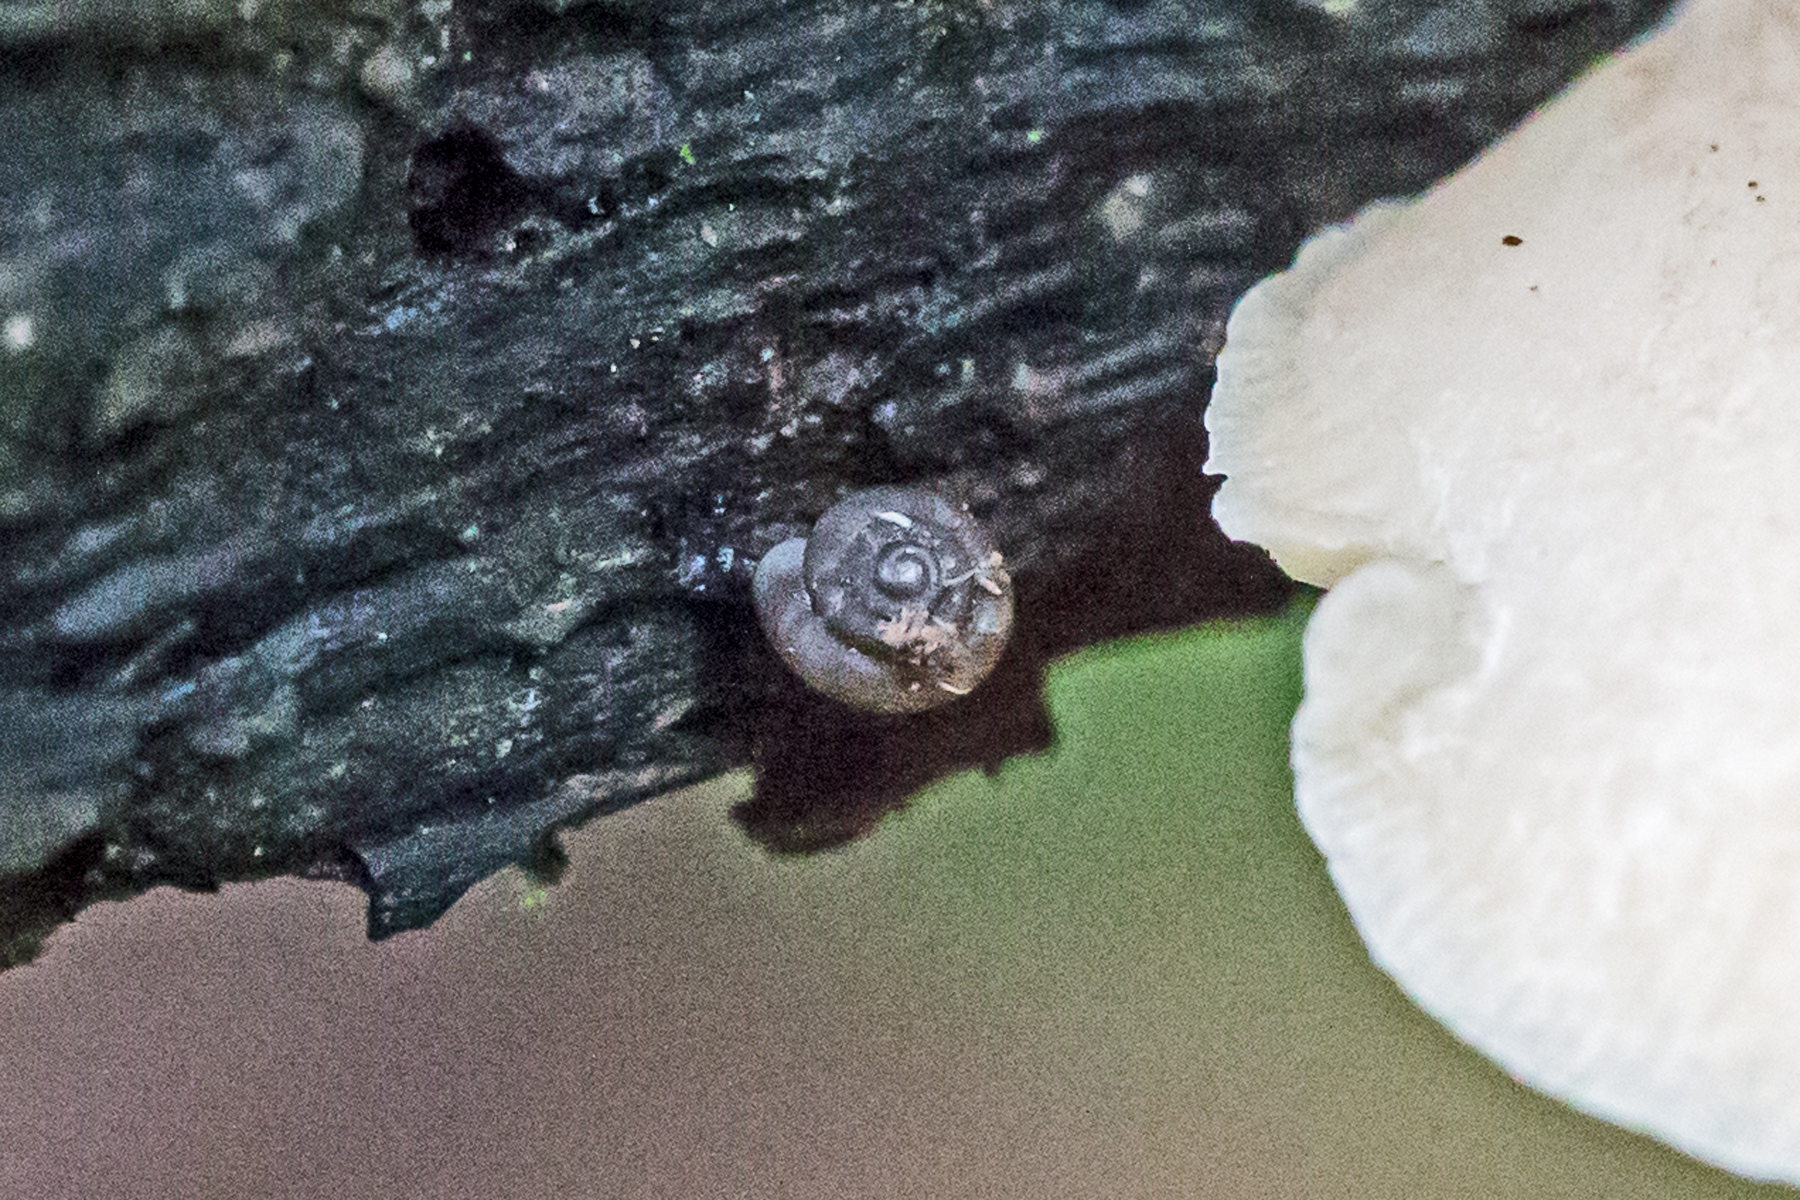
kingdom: Animalia
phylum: Mollusca
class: Gastropoda
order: Stylommatophora
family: Discidae
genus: Discus
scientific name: Discus rotundatus
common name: Rounded snail
